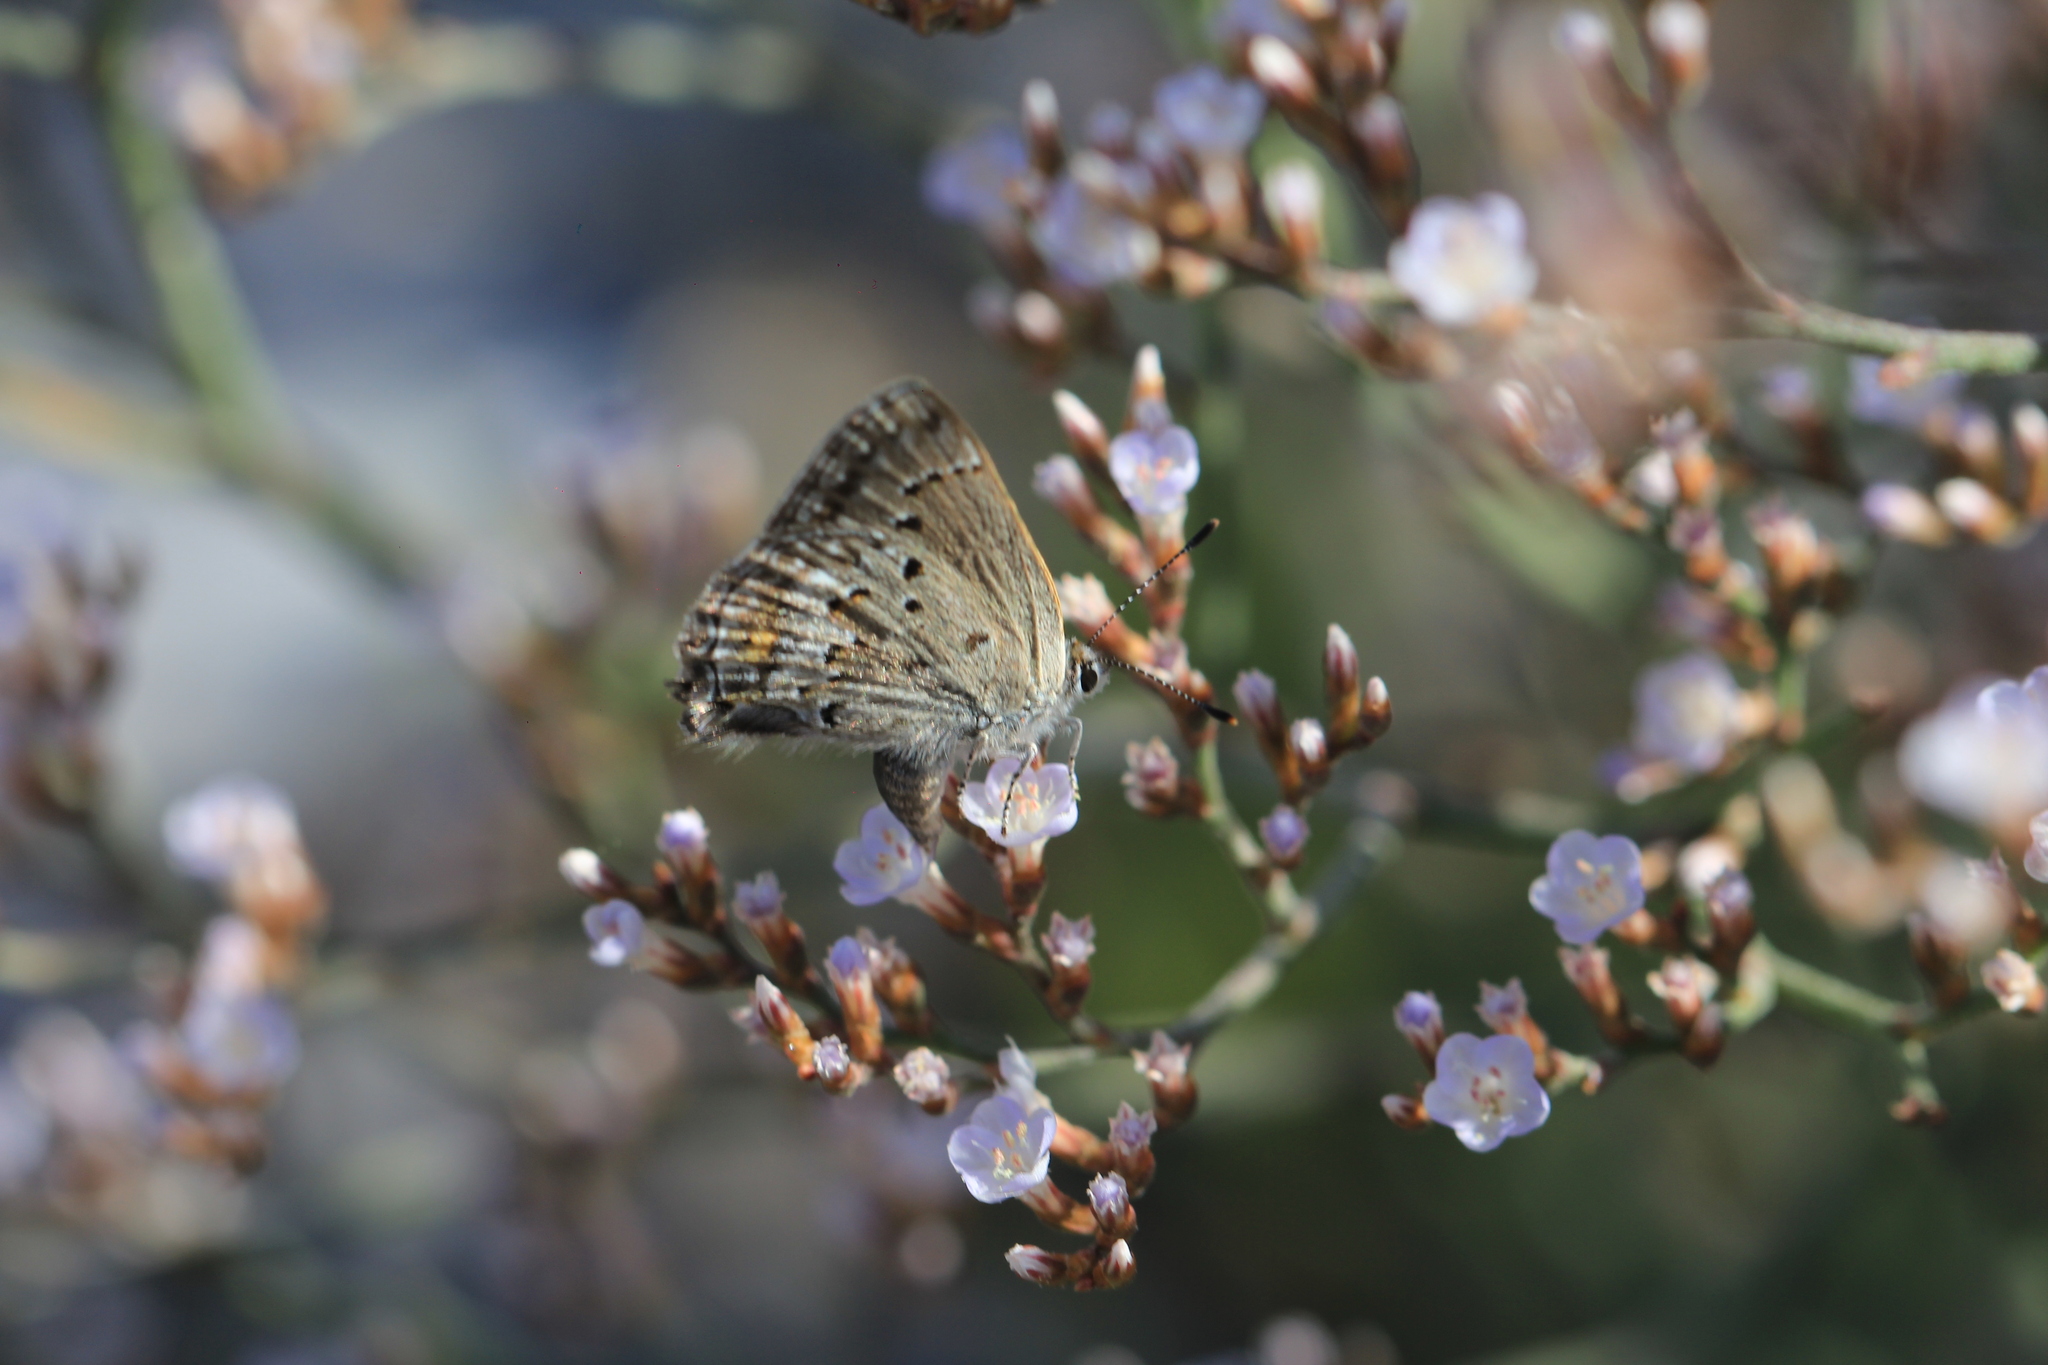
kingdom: Animalia
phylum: Arthropoda
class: Insecta
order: Lepidoptera
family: Lycaenidae
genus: Strymon
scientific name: Strymon eurytulus
